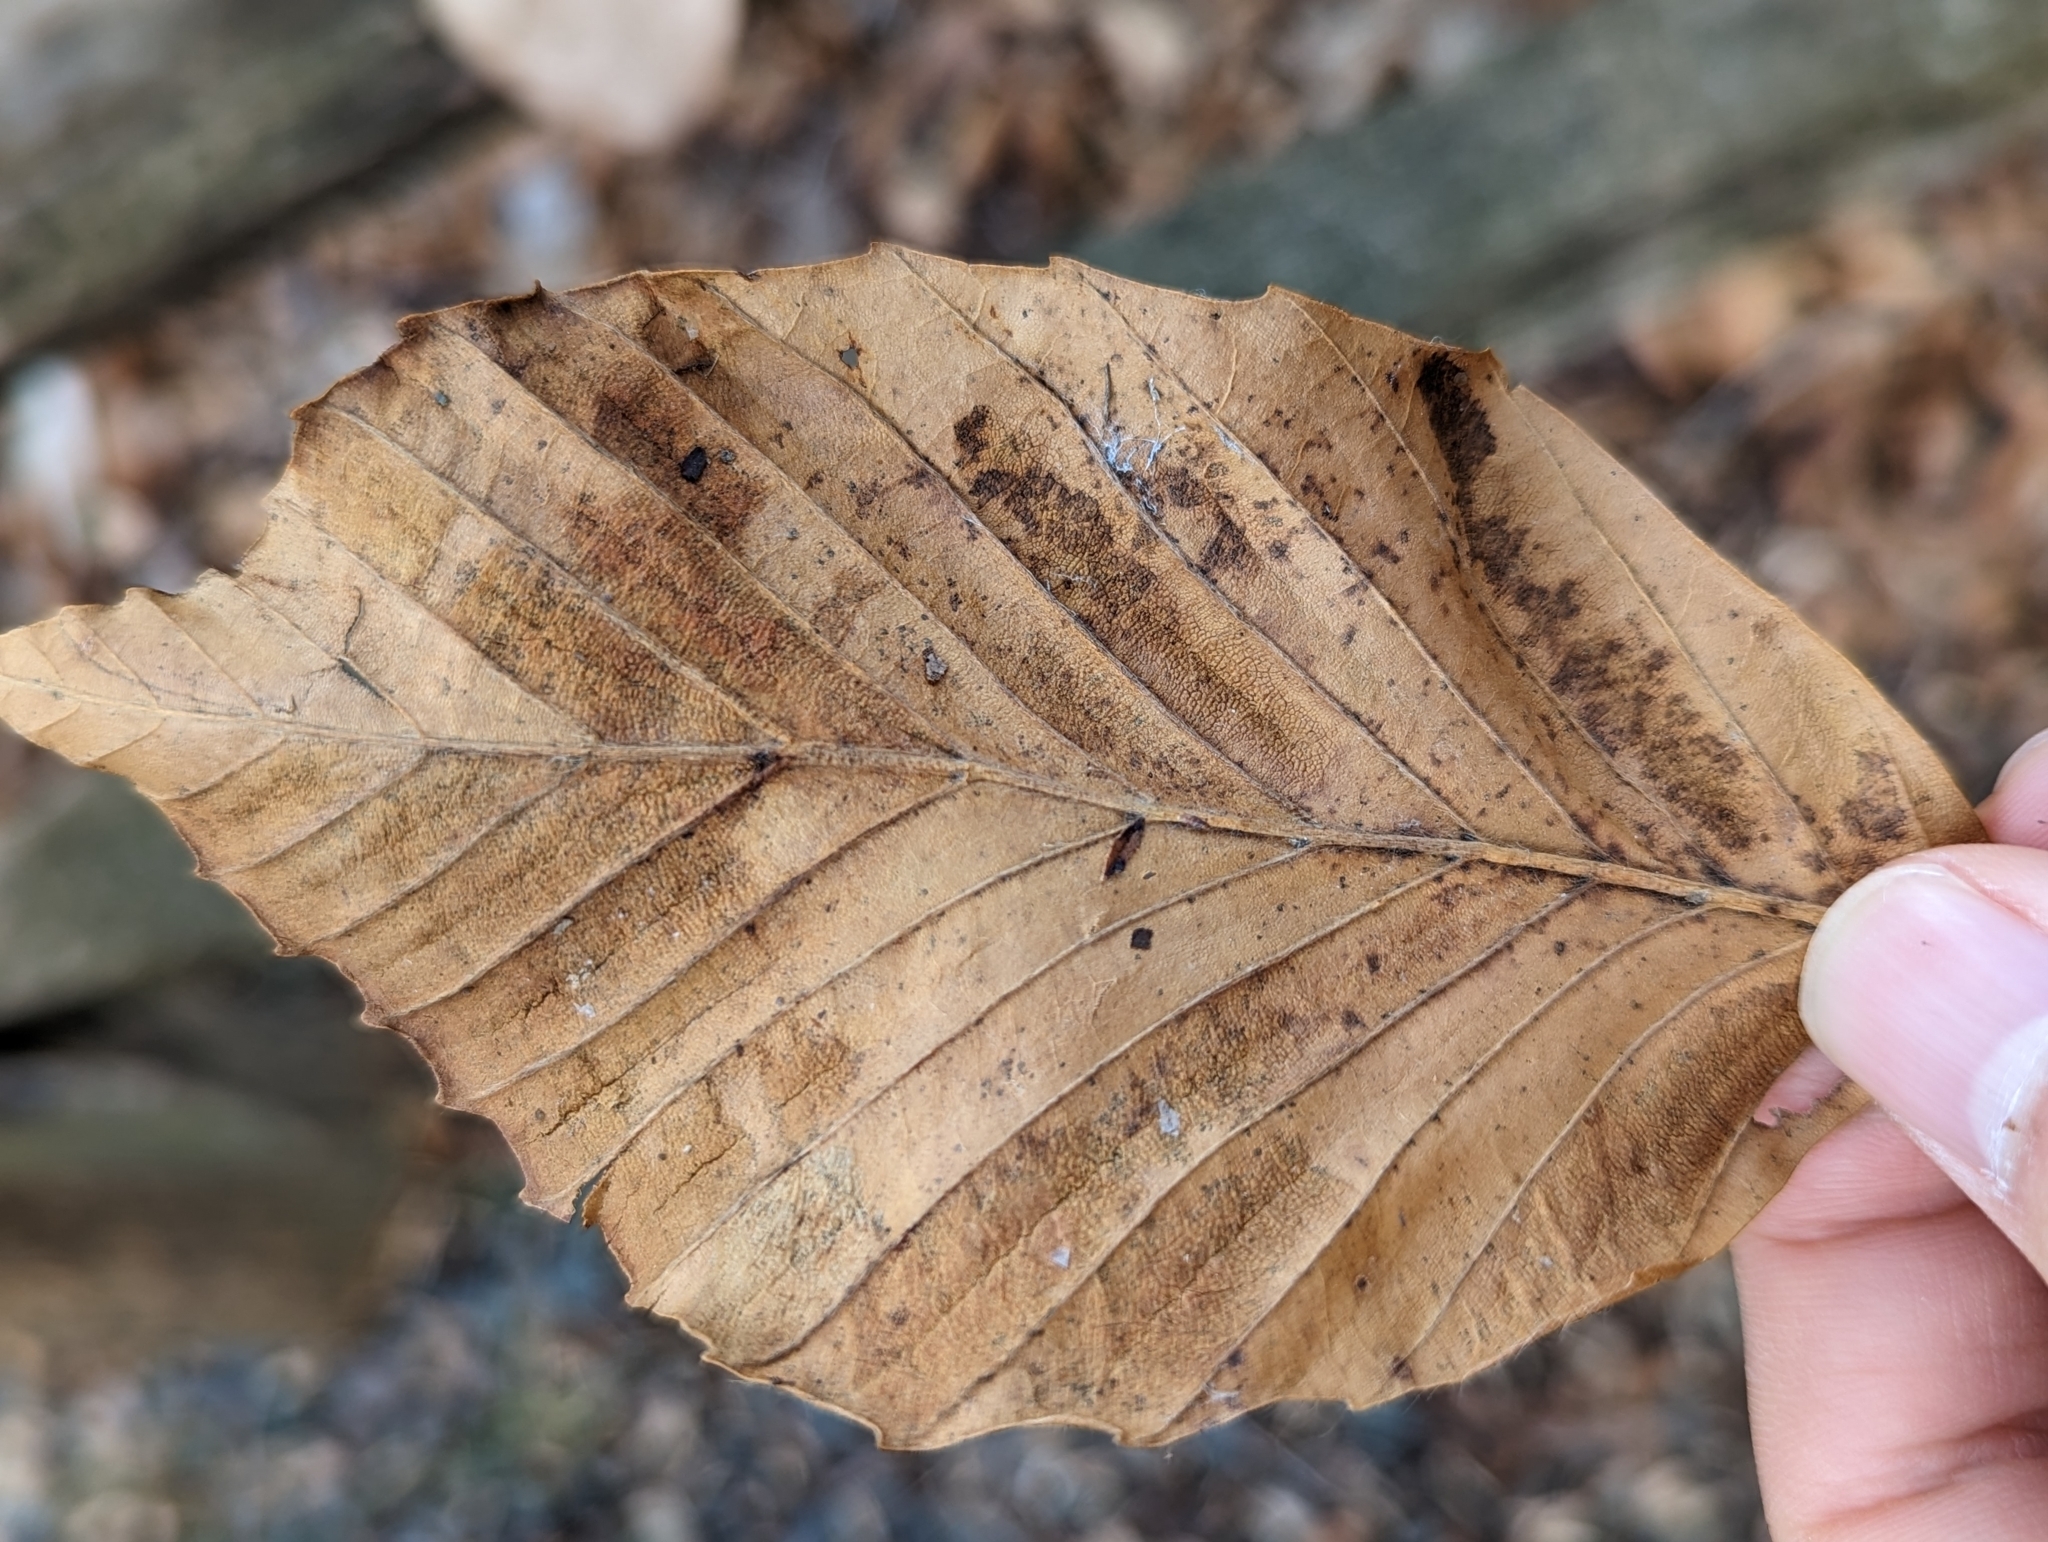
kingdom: Animalia
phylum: Nematoda
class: Chromadorea
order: Rhabditida
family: Anguinidae
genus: Litylenchus
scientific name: Litylenchus crenatae
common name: Beech leaf disease
